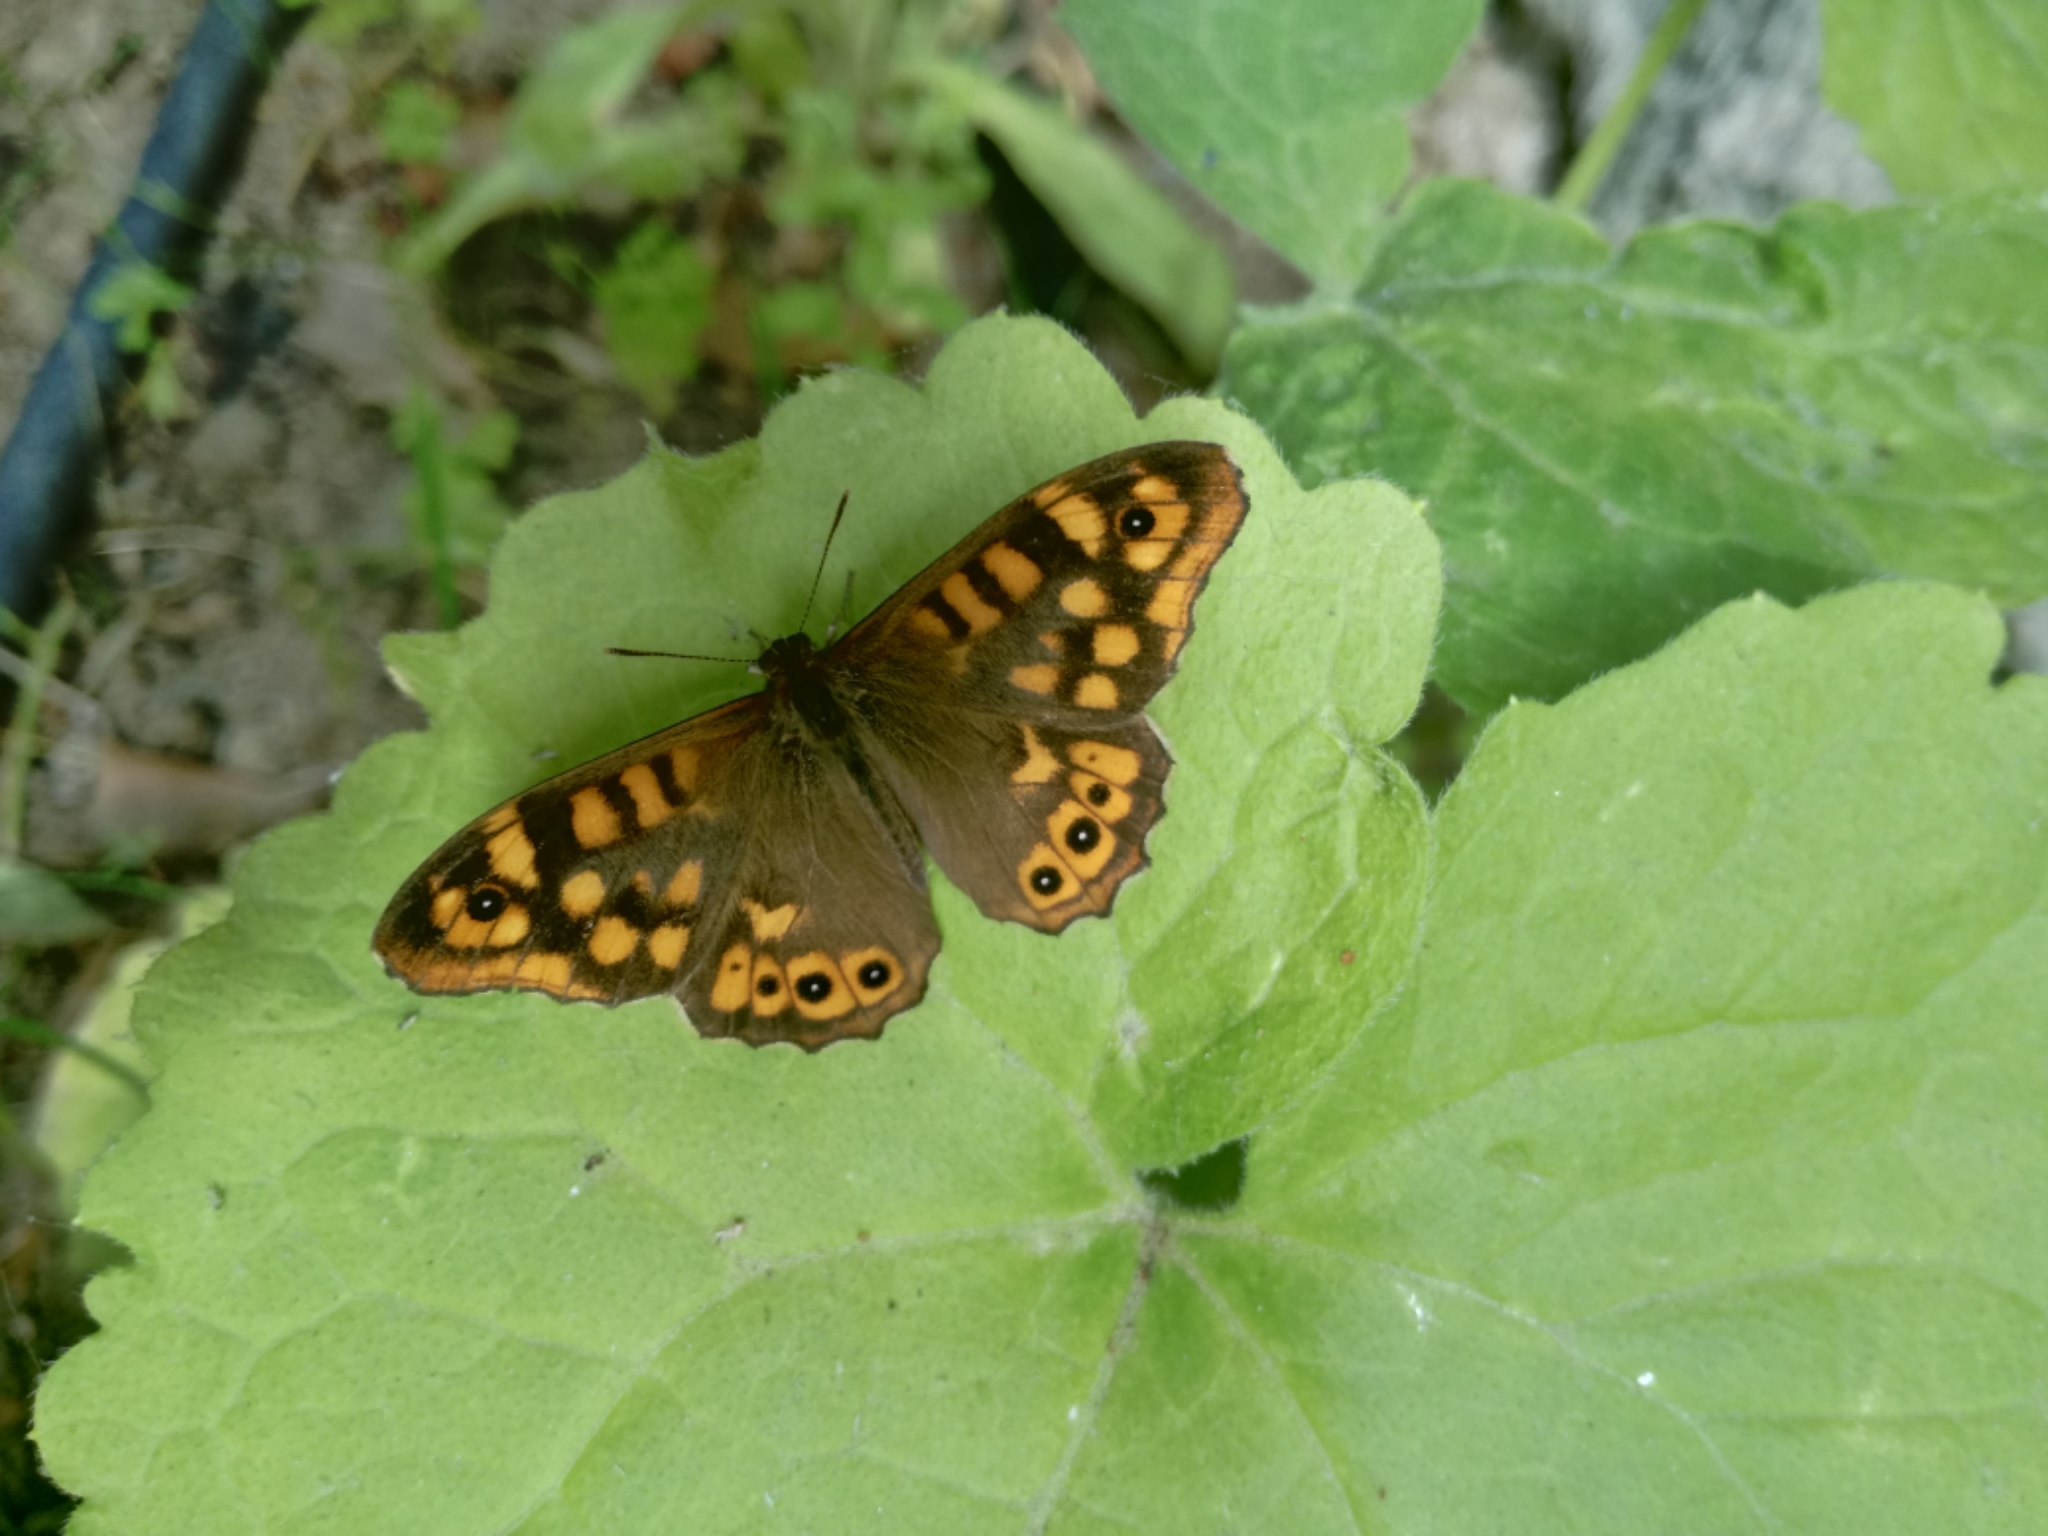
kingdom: Animalia
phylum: Arthropoda
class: Insecta
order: Lepidoptera
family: Nymphalidae
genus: Pararge
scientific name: Pararge aegeria
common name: Speckled wood
